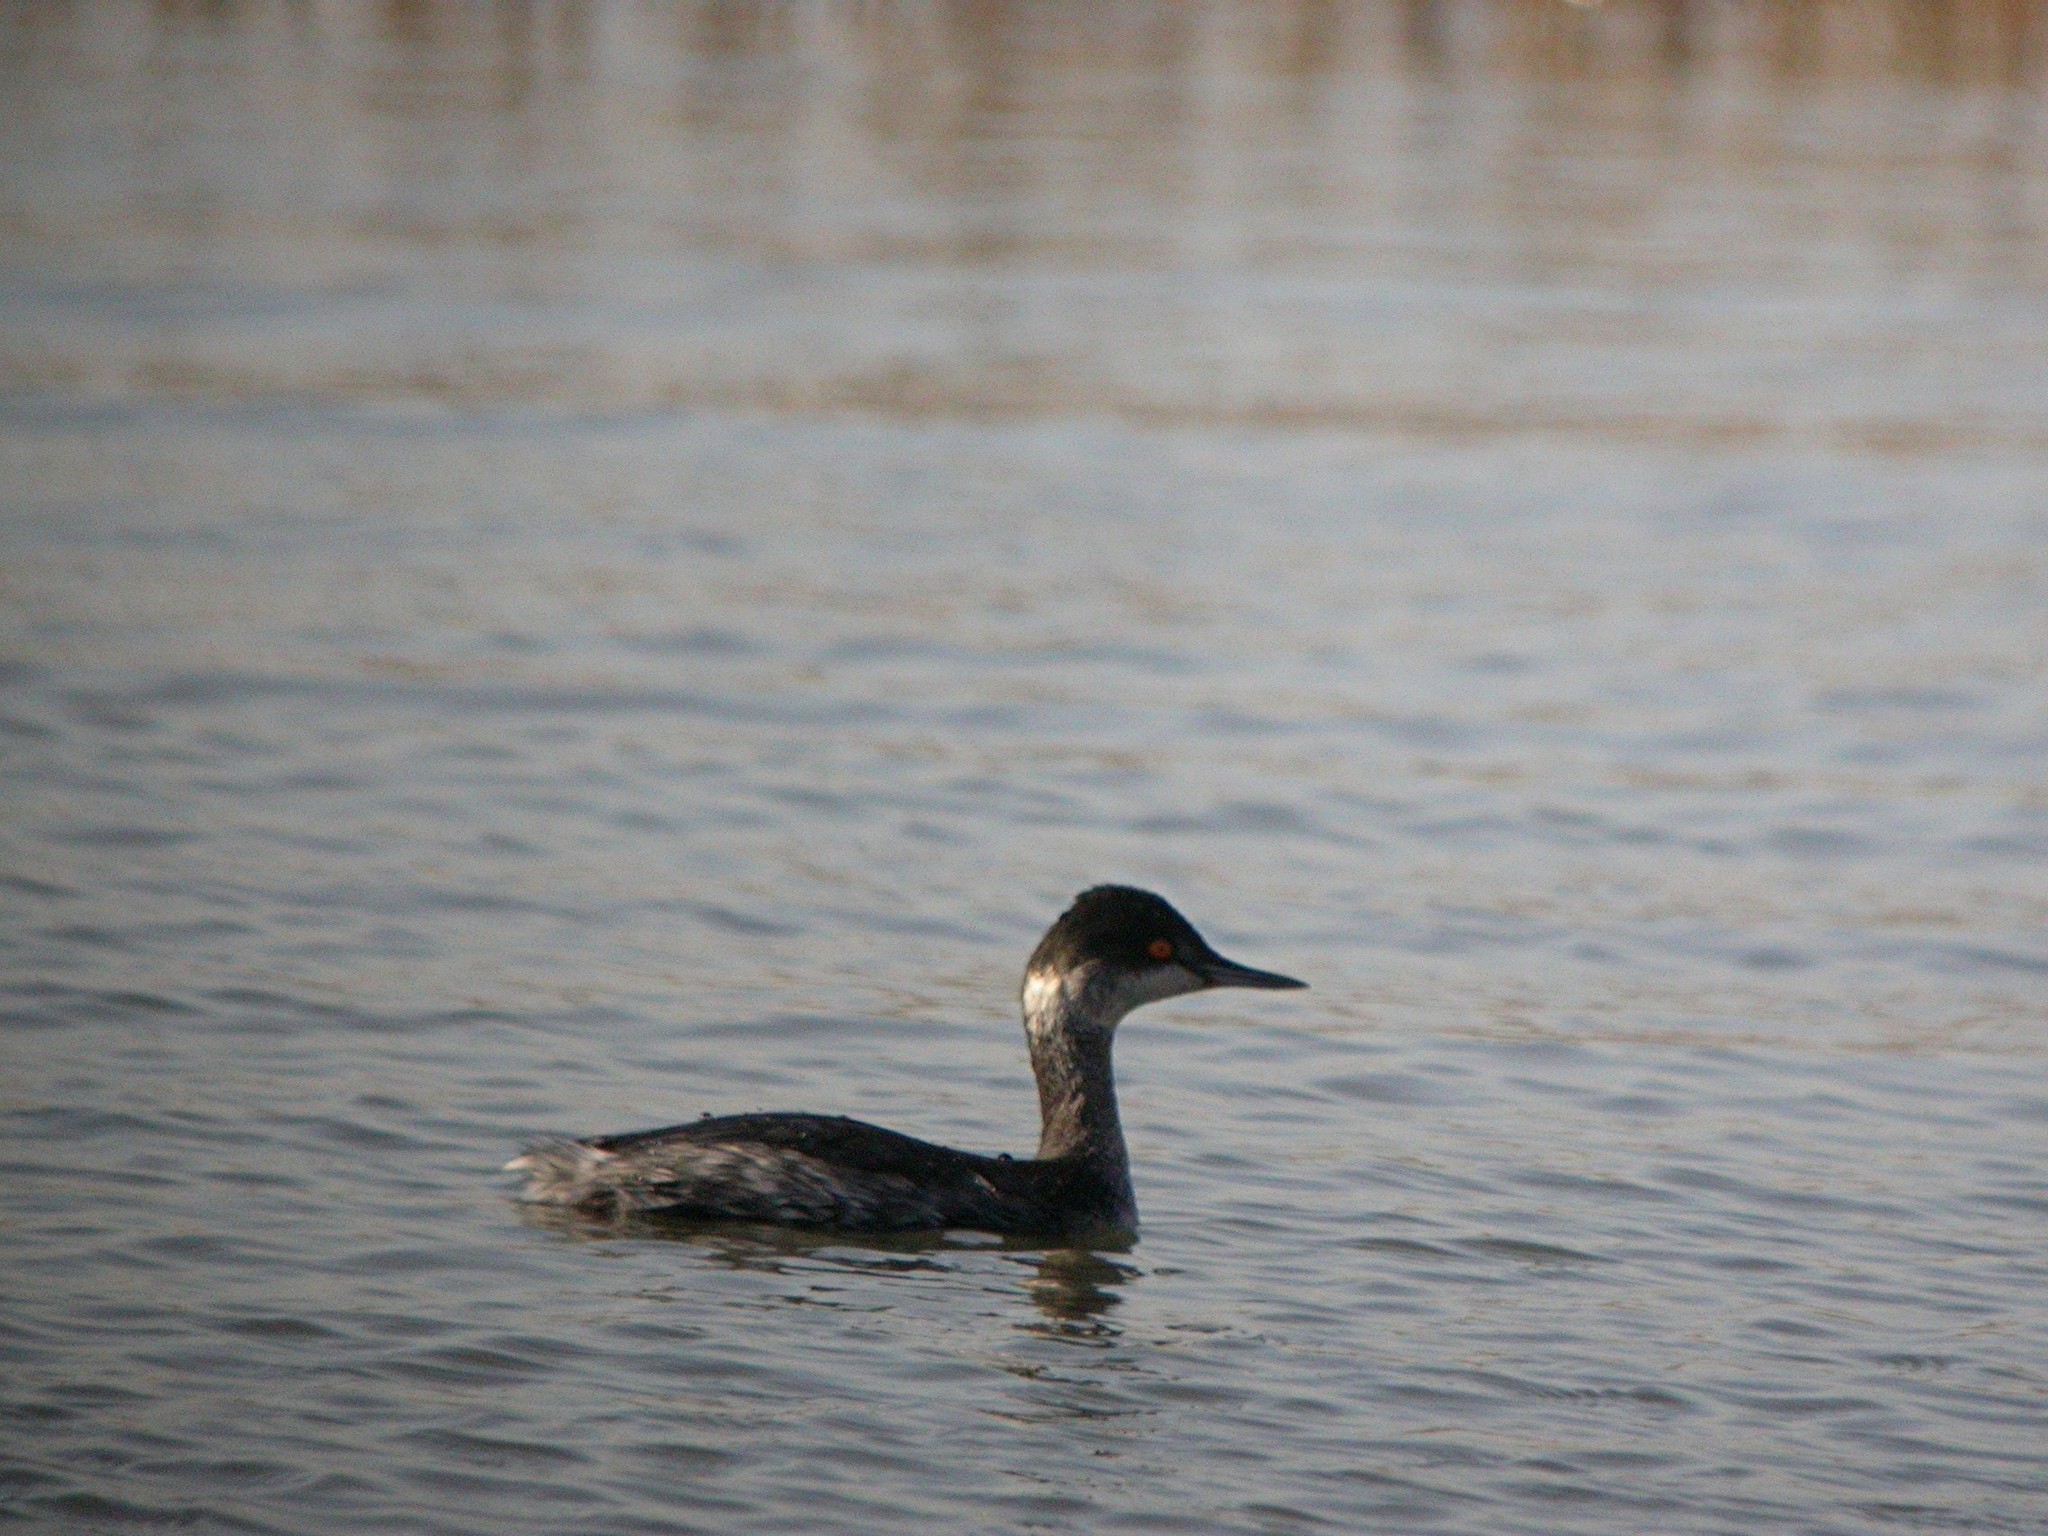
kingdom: Animalia
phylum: Chordata
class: Aves
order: Podicipediformes
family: Podicipedidae
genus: Podiceps
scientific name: Podiceps nigricollis
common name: Black-necked grebe
